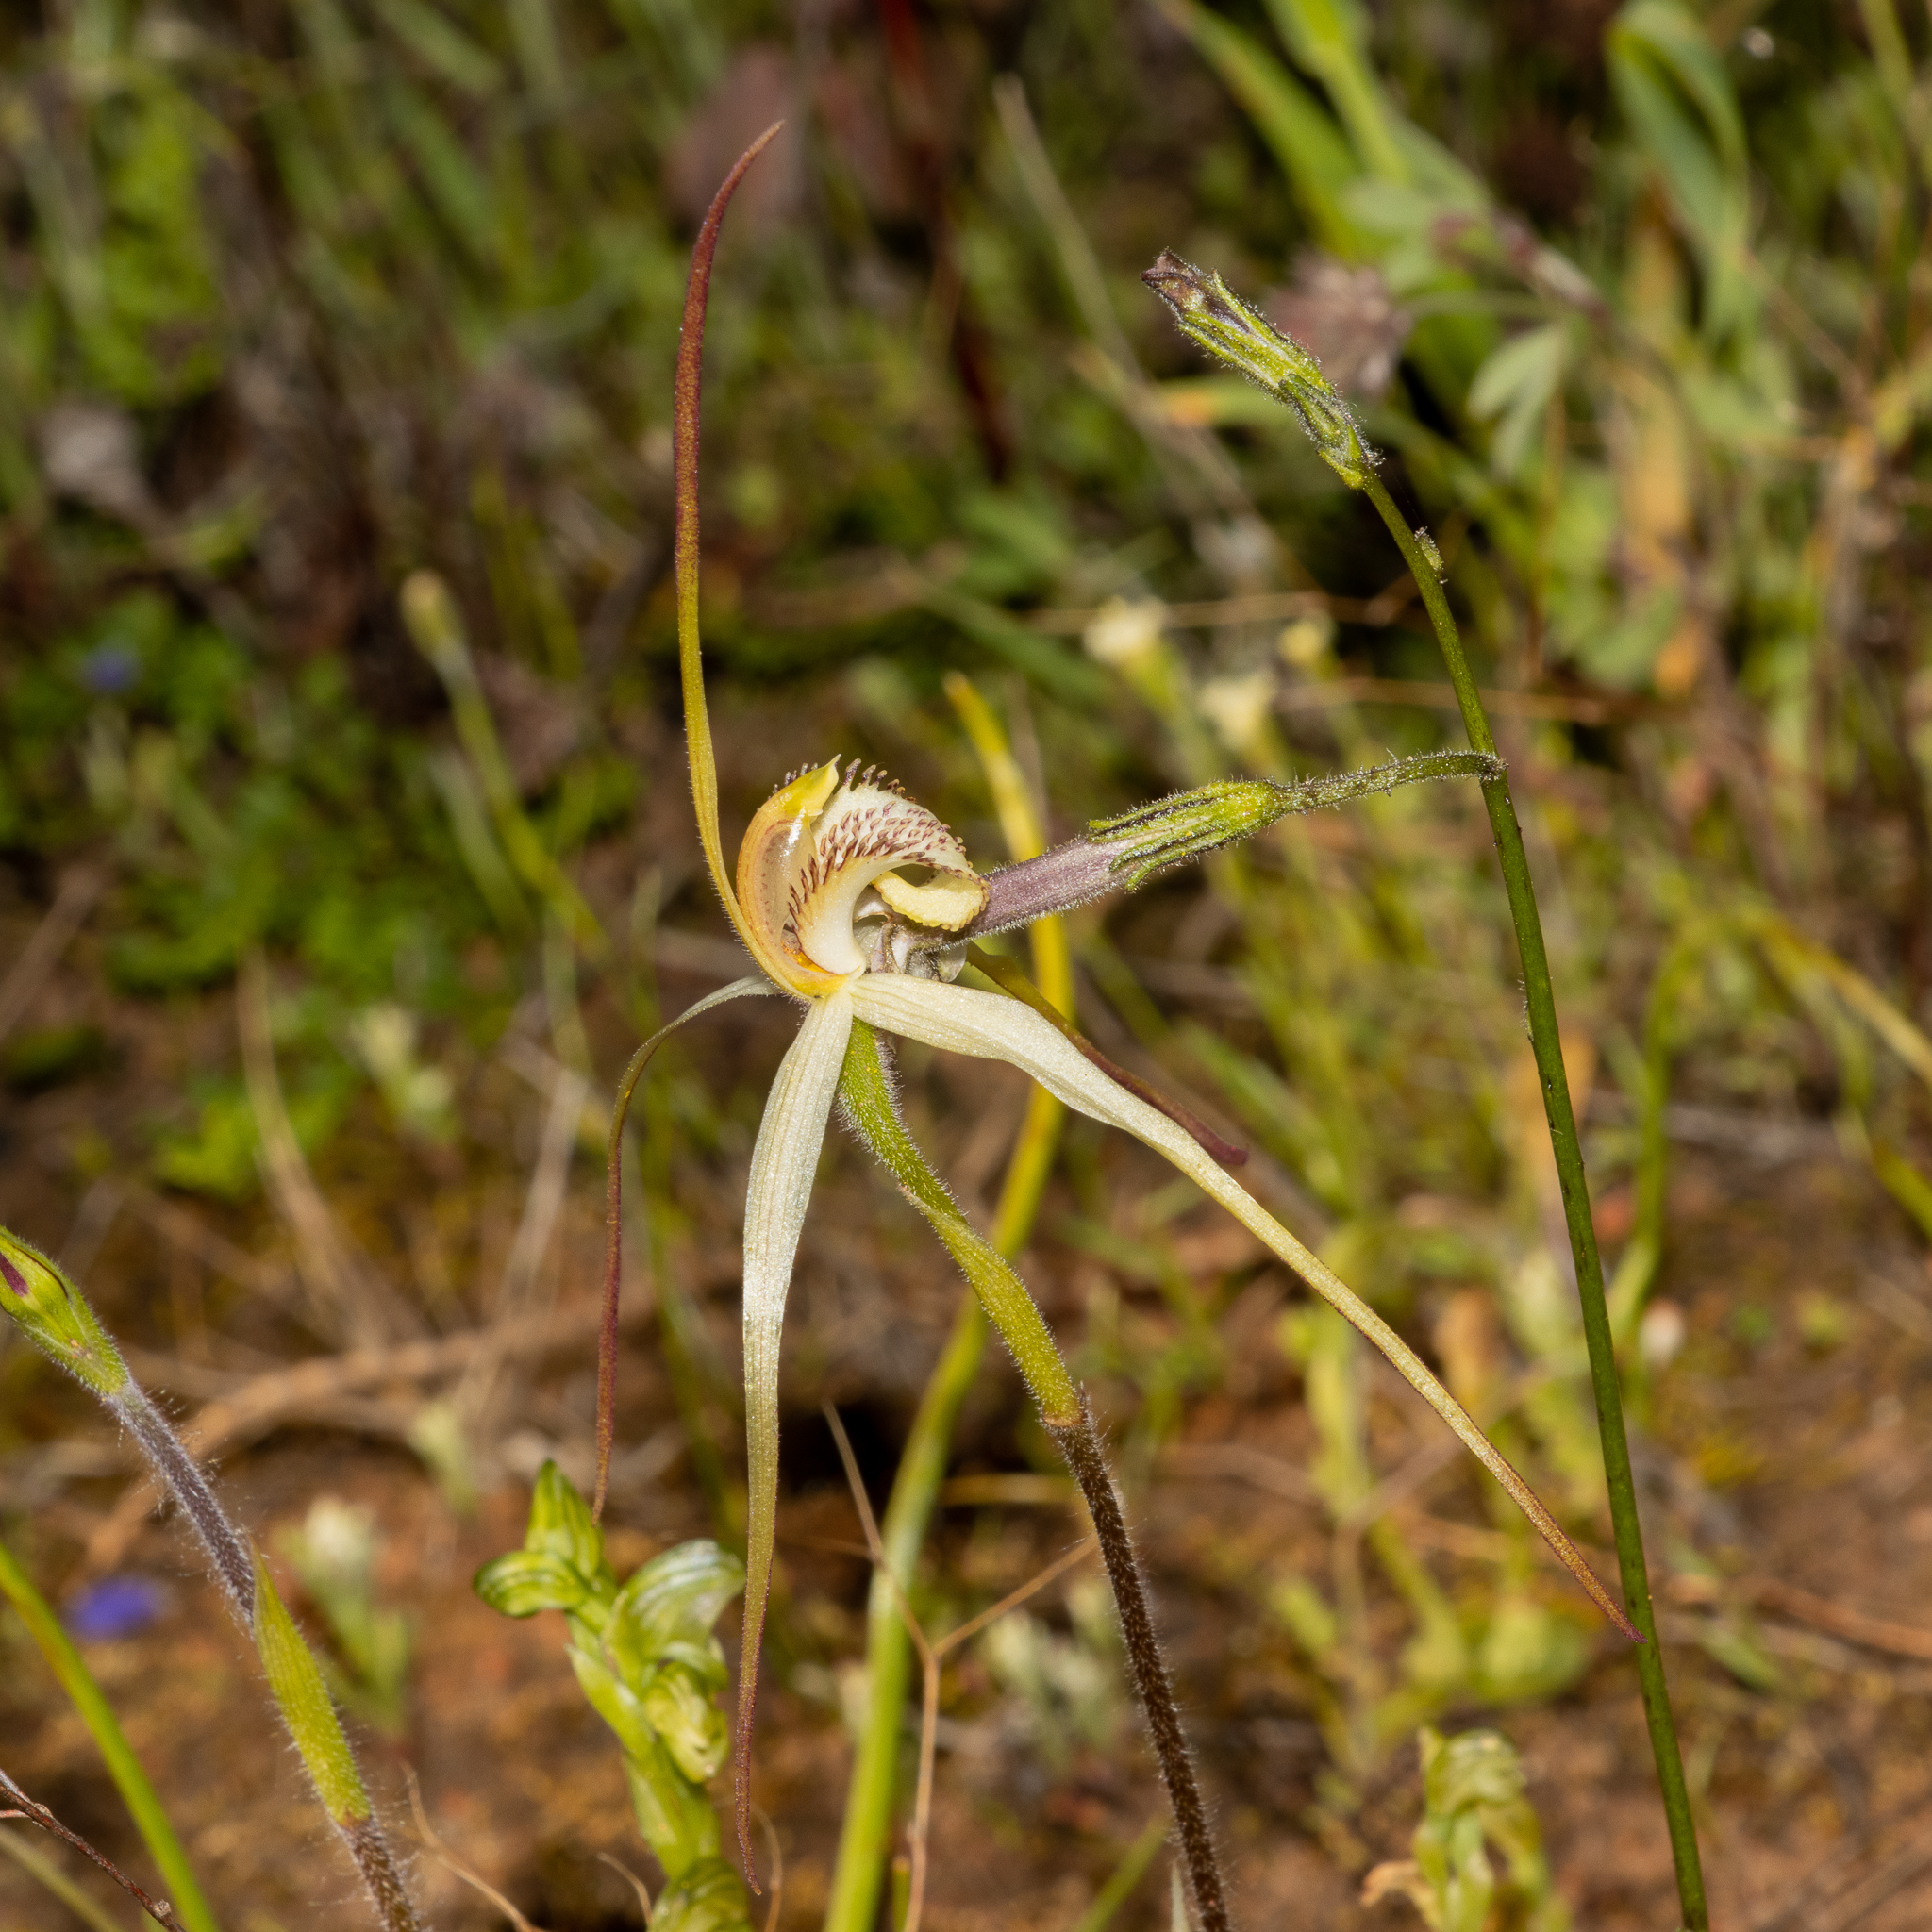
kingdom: Plantae
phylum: Tracheophyta
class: Liliopsida
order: Asparagales
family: Orchidaceae
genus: Caladenia
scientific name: Caladenia zephyra
